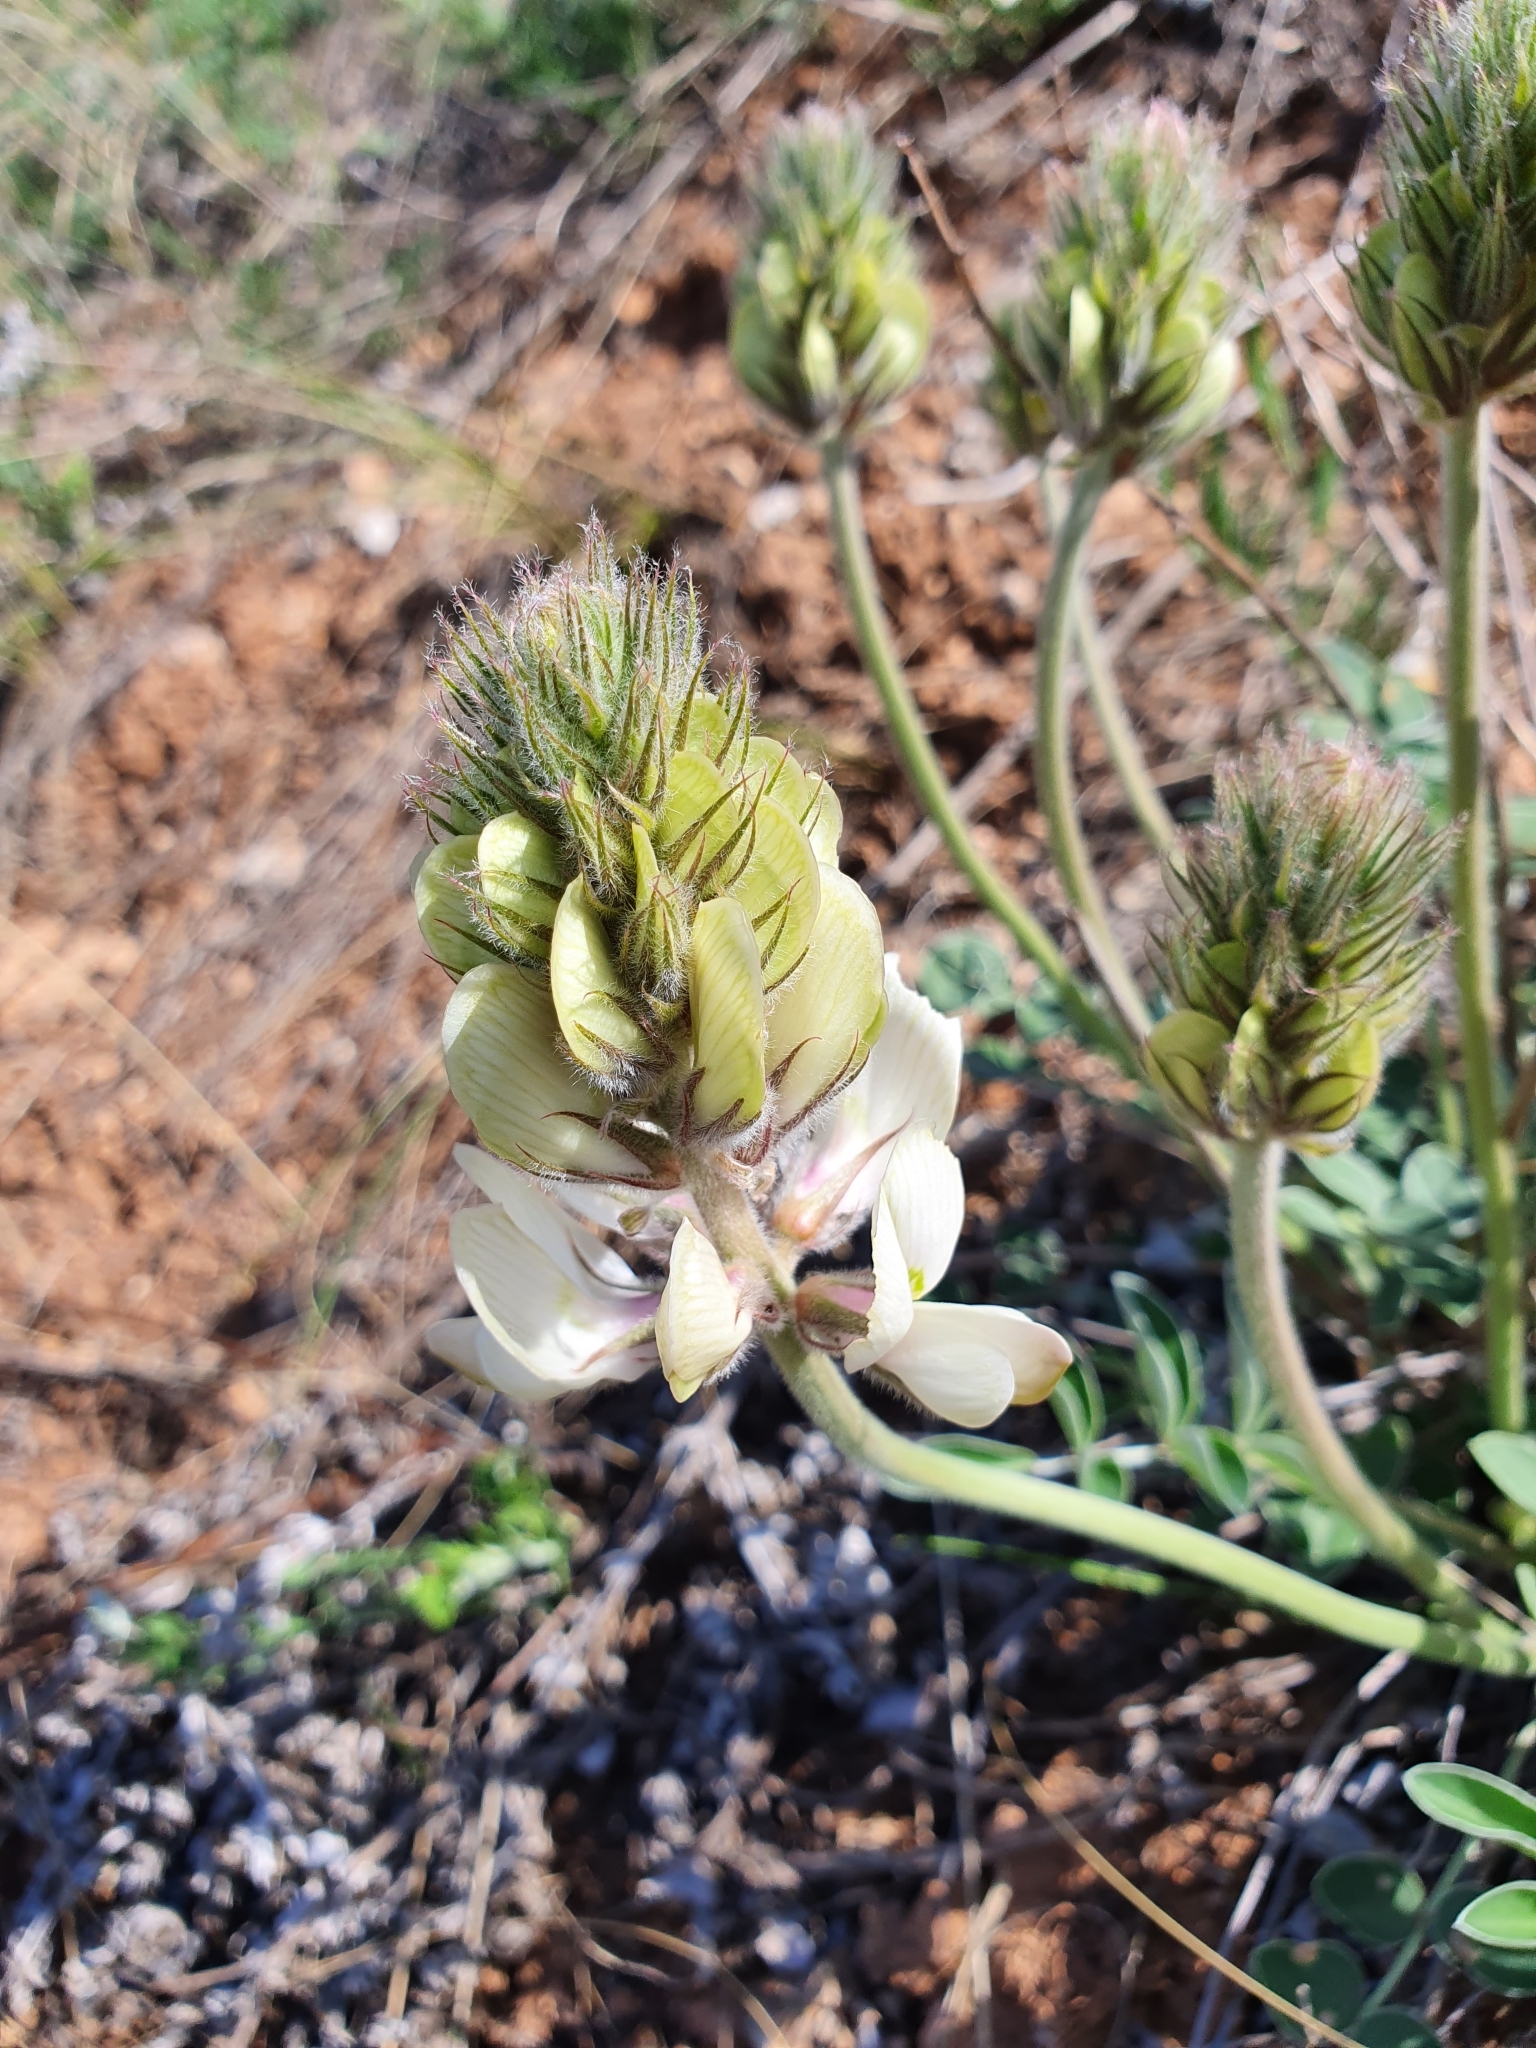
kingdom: Plantae
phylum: Tracheophyta
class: Magnoliopsida
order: Fabales
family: Fabaceae
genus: Hedysarum
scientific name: Hedysarum grandiflorum
